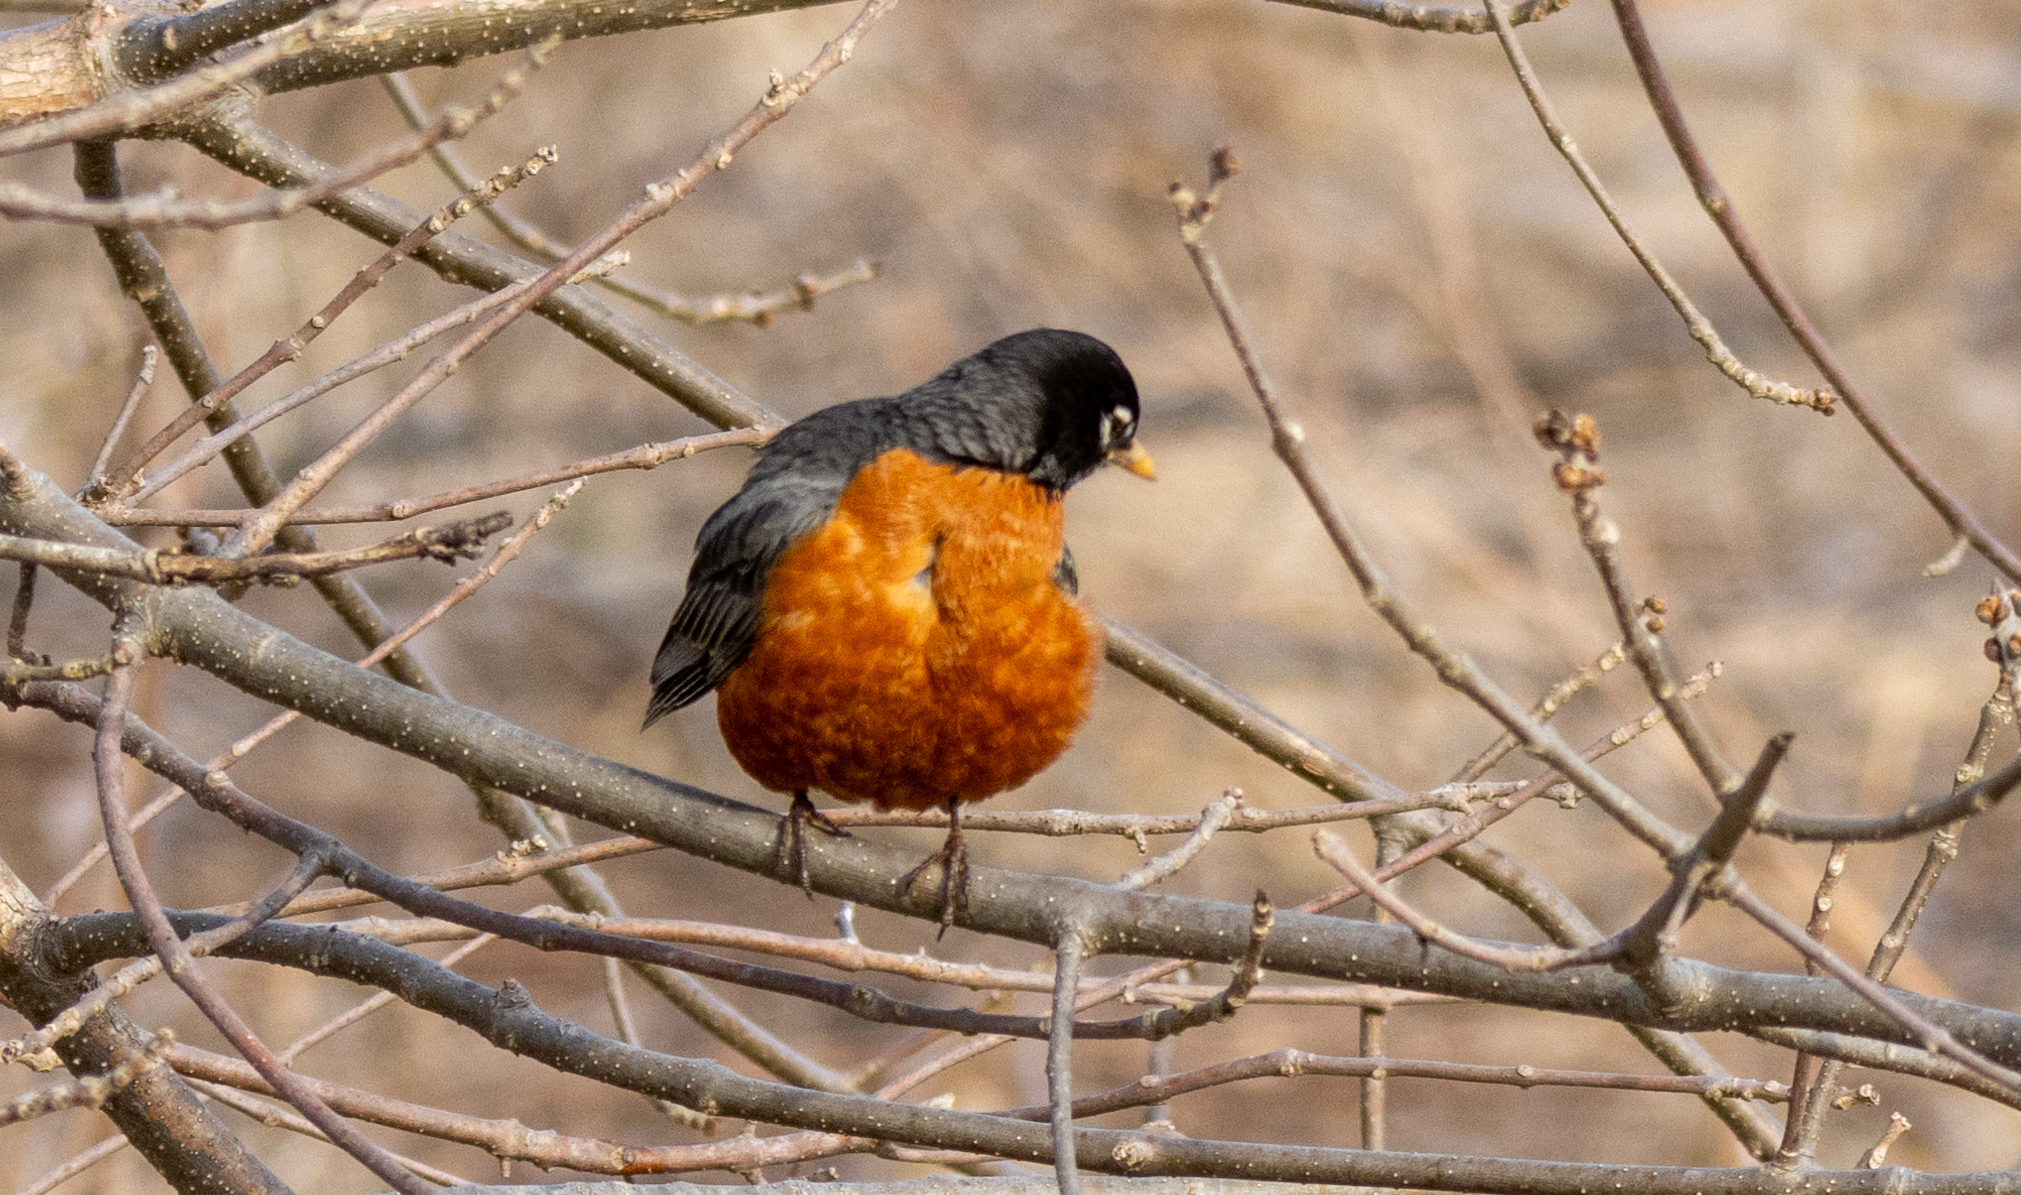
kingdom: Animalia
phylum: Chordata
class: Aves
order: Passeriformes
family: Turdidae
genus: Turdus
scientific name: Turdus migratorius
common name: American robin
